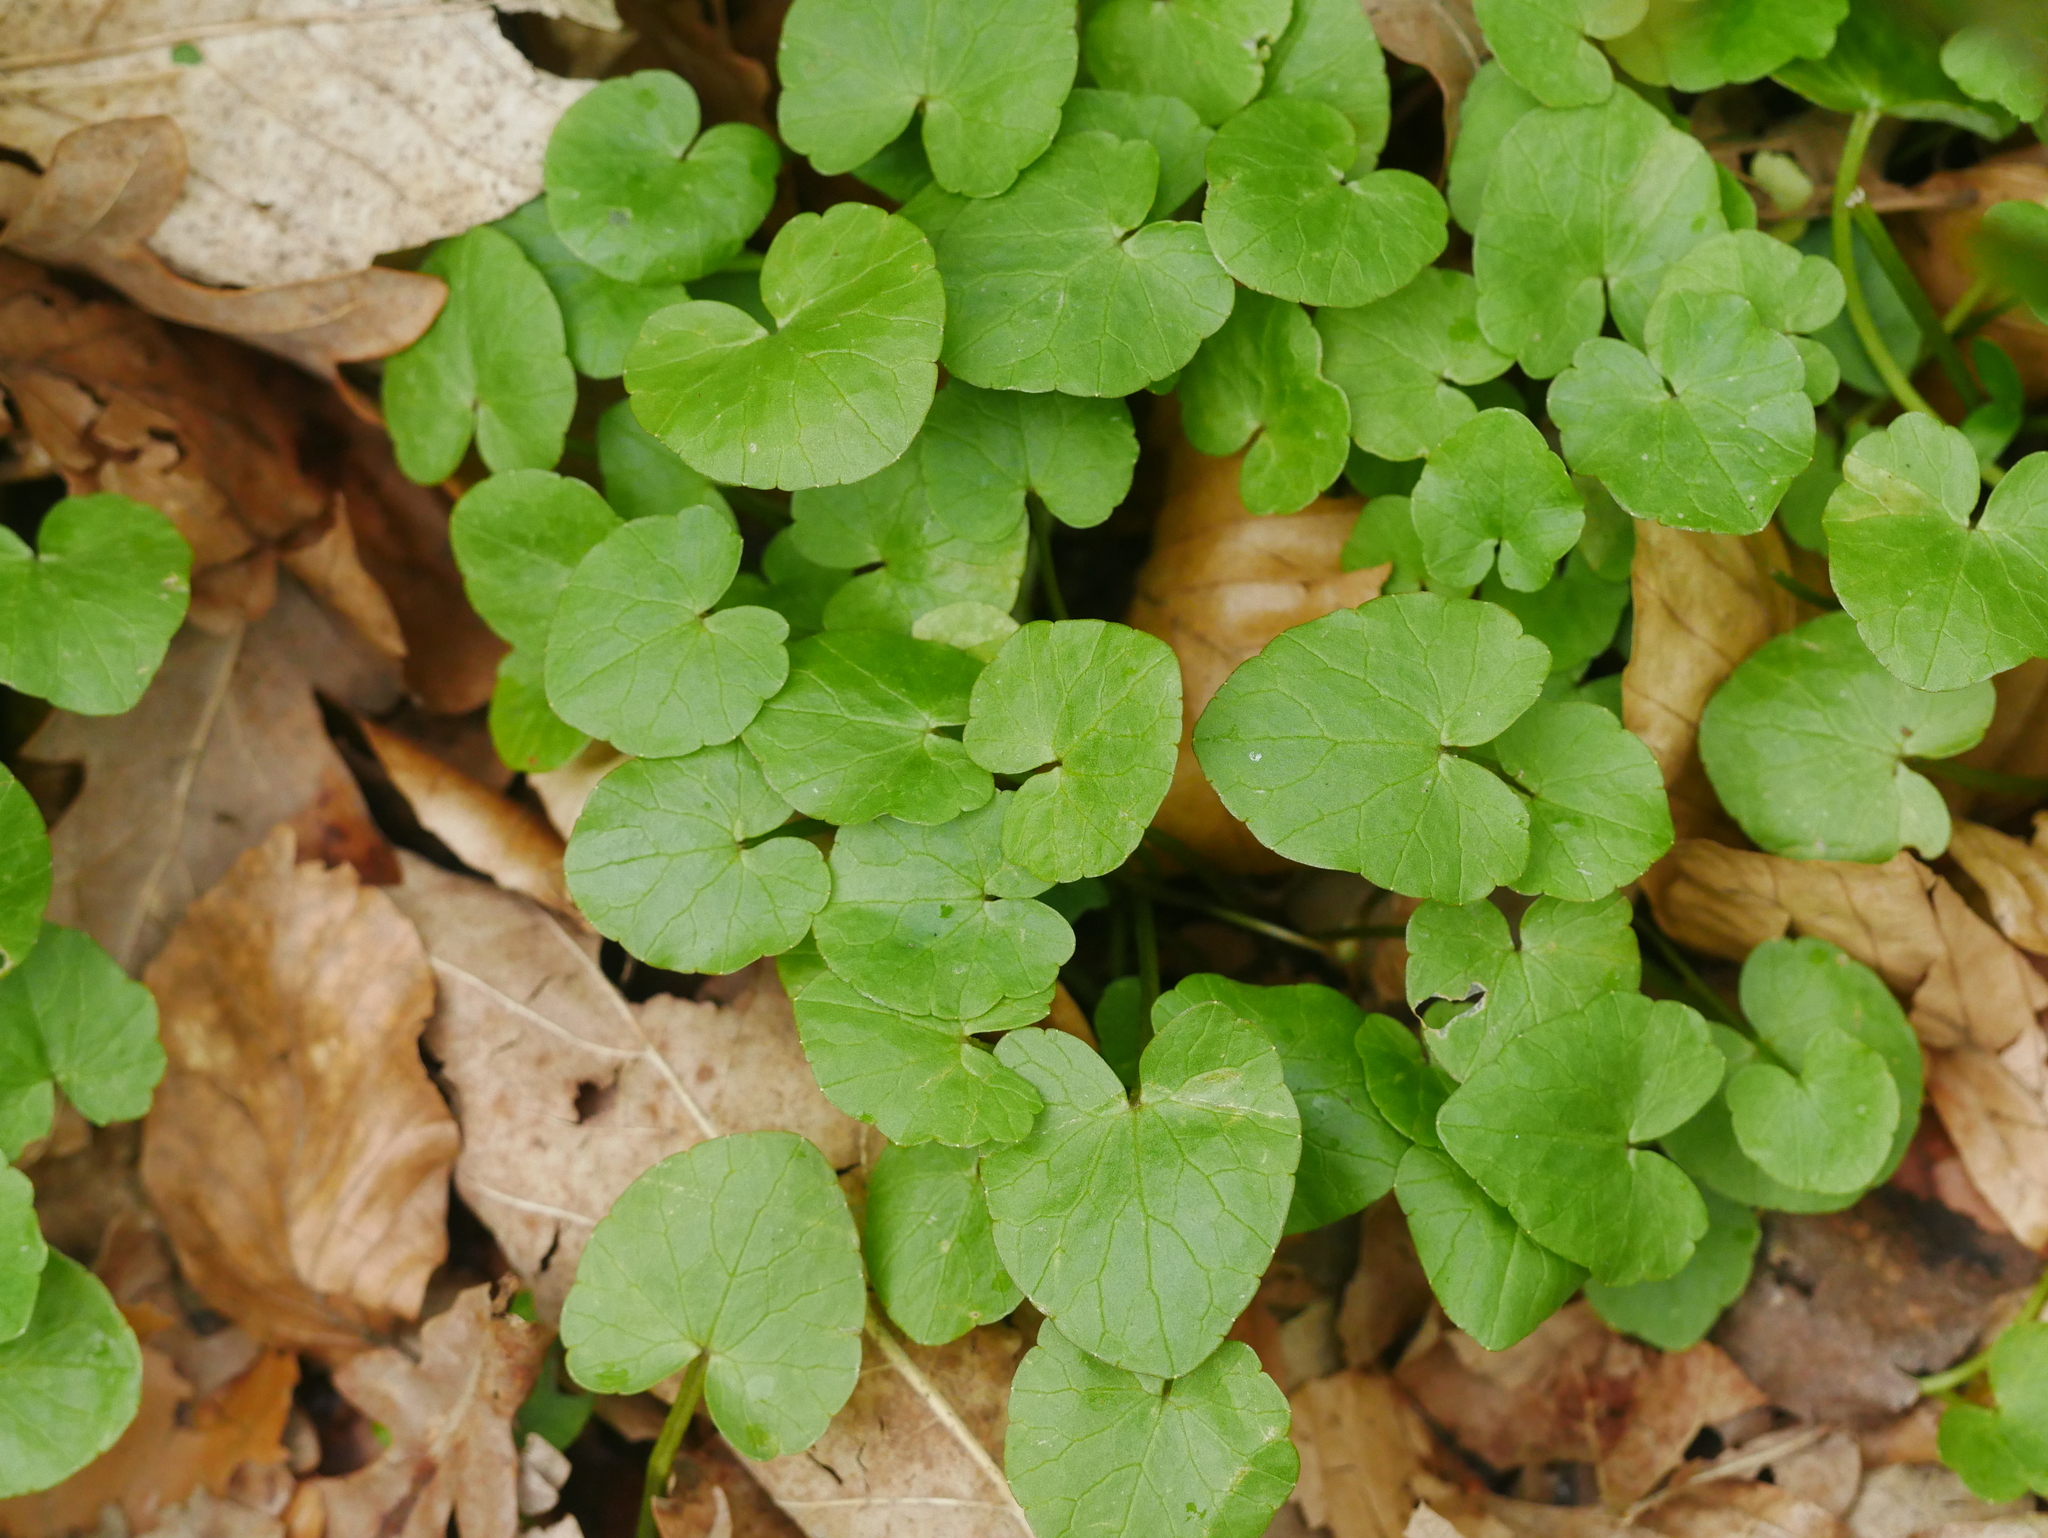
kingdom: Plantae
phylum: Tracheophyta
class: Magnoliopsida
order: Ranunculales
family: Ranunculaceae
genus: Ficaria
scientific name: Ficaria verna
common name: Lesser celandine
